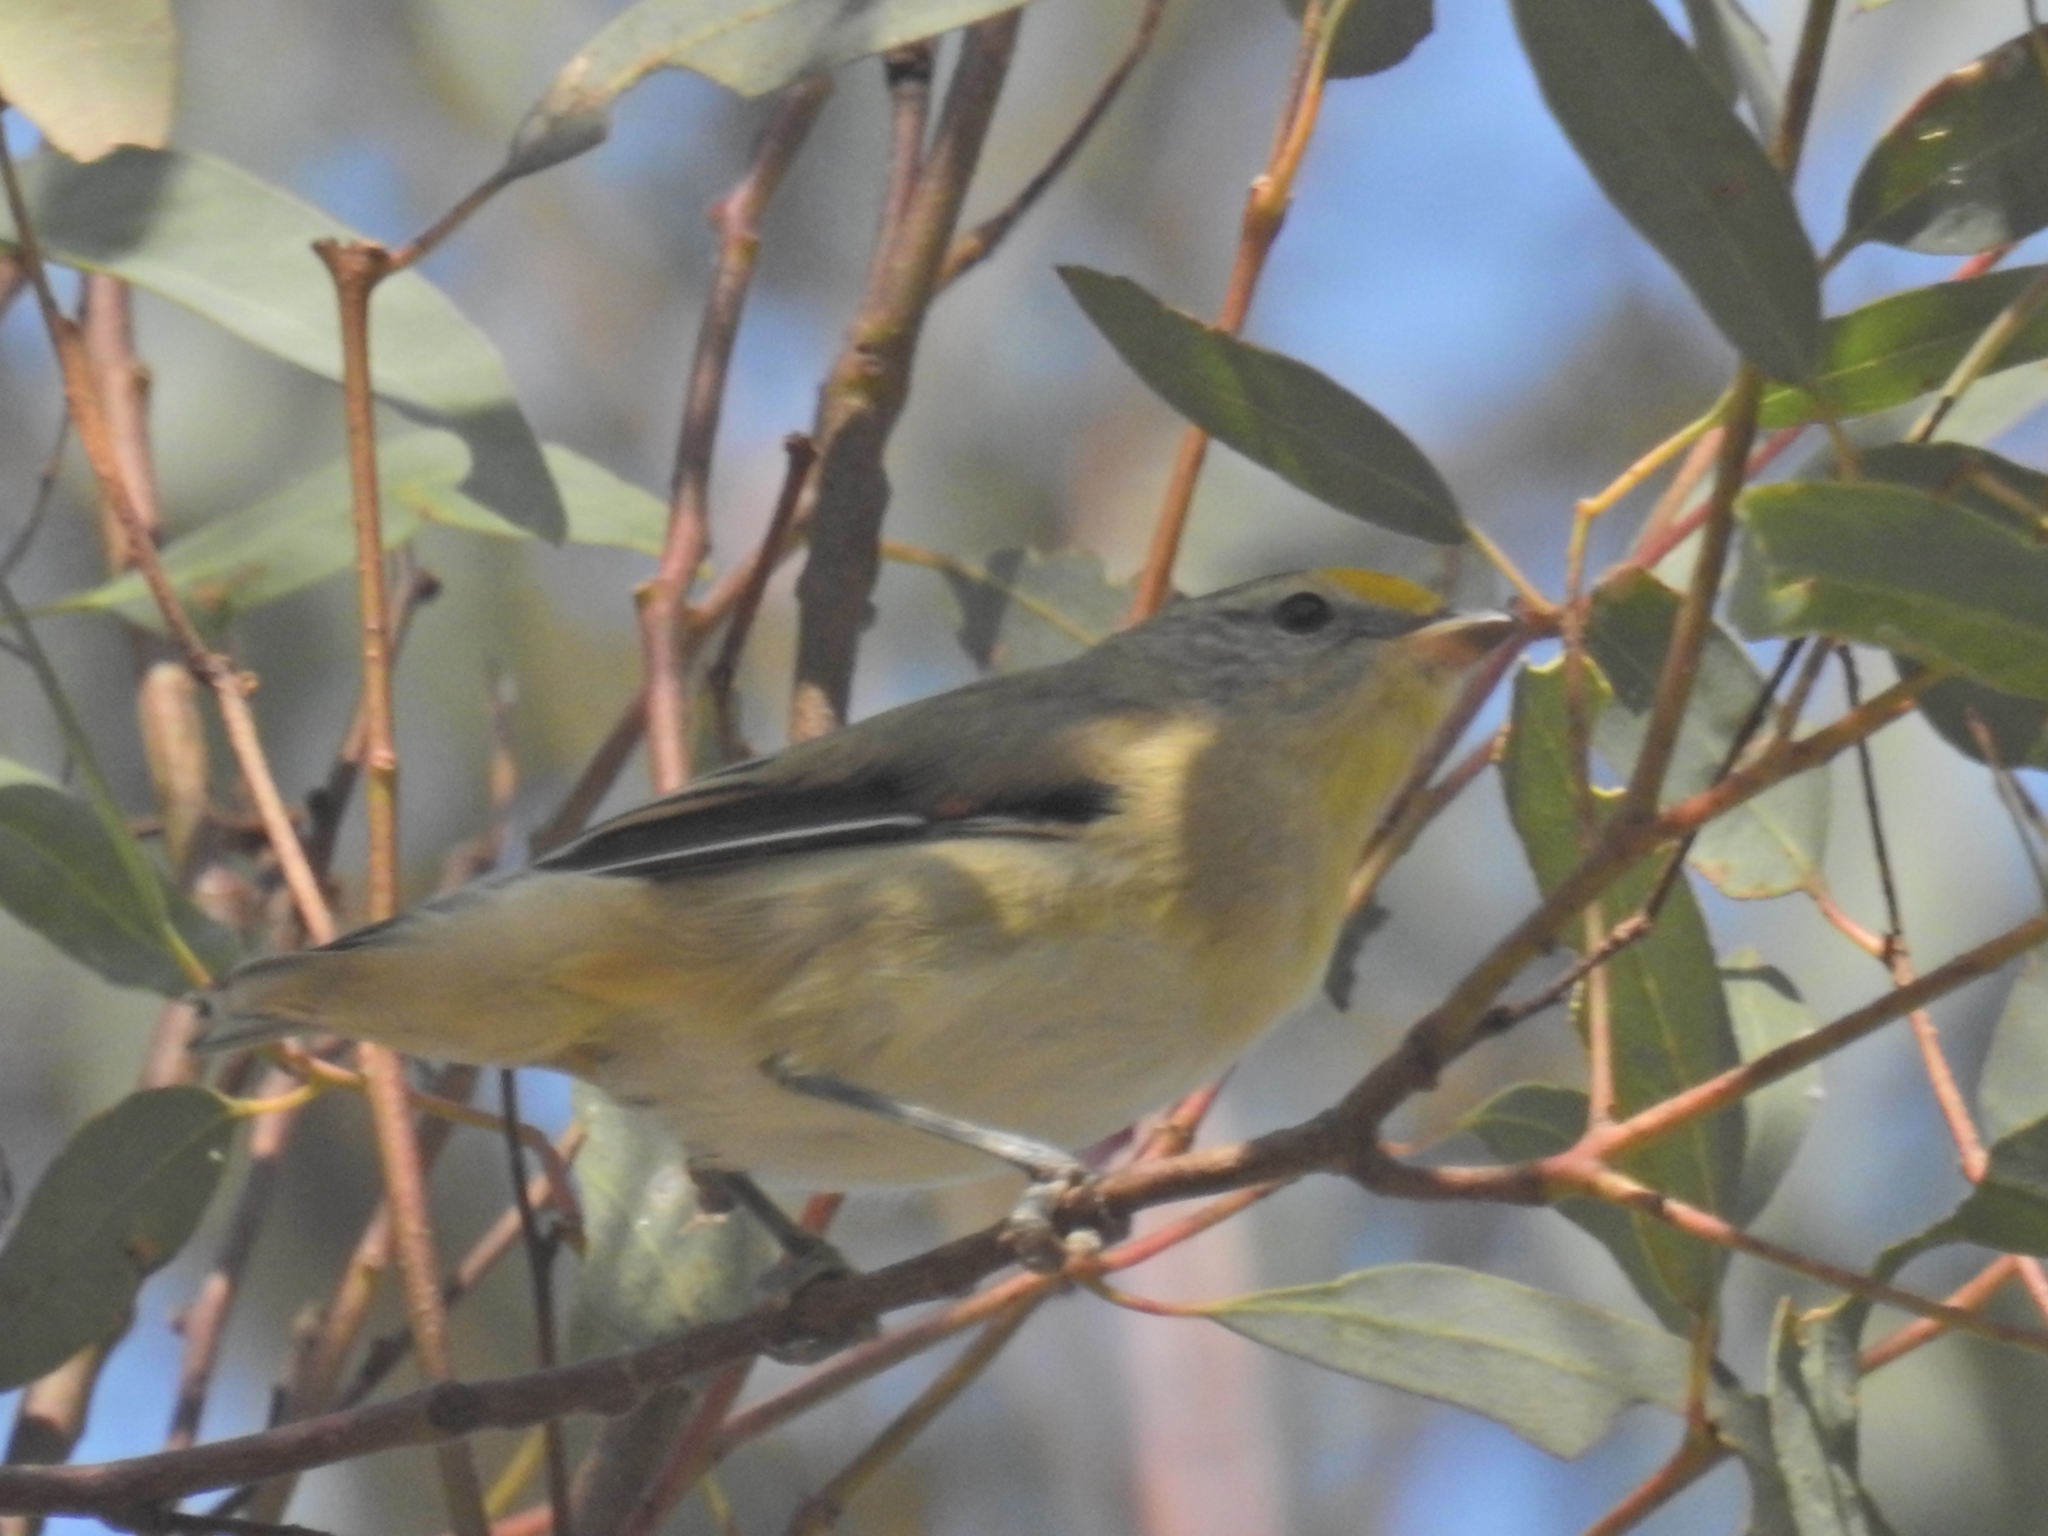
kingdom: Animalia
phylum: Chordata
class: Aves
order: Passeriformes
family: Pardalotidae
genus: Pardalotus
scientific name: Pardalotus striatus
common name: Striated pardalote
